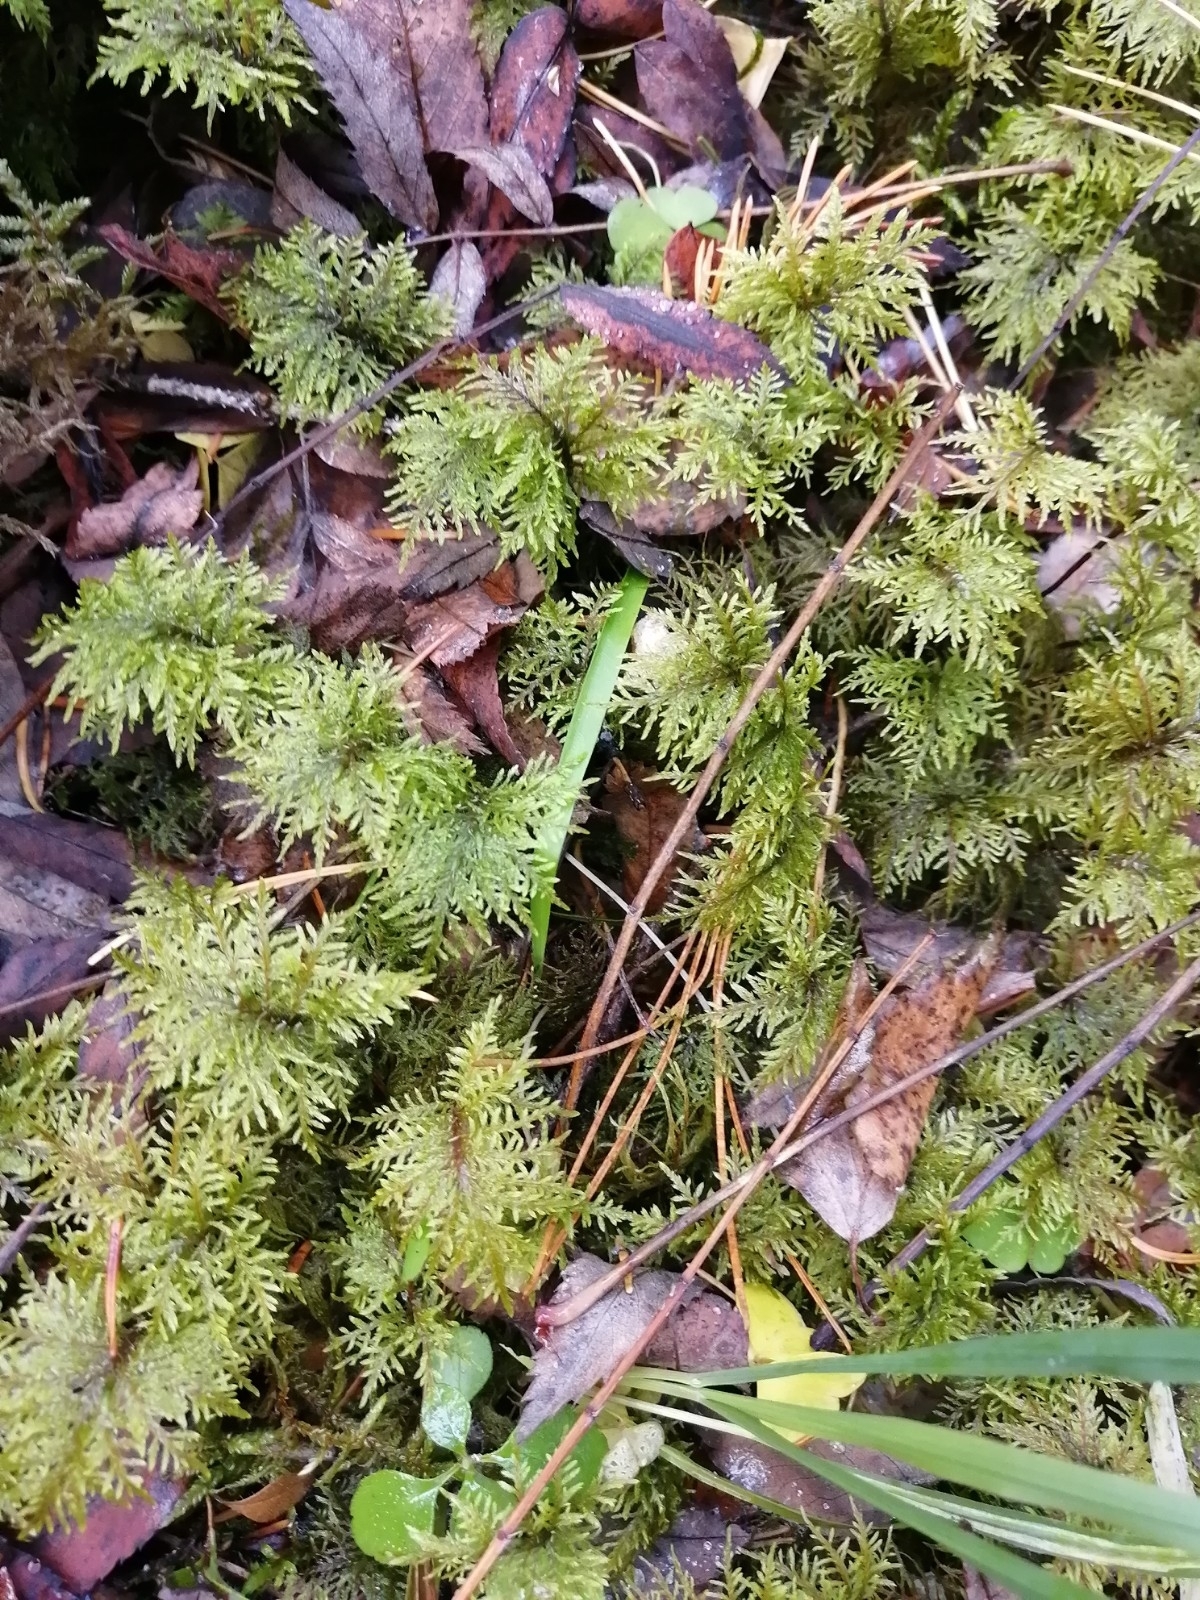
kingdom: Plantae
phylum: Bryophyta
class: Bryopsida
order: Hypnales
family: Hylocomiaceae
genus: Hylocomium
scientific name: Hylocomium splendens
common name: Stairstep moss
